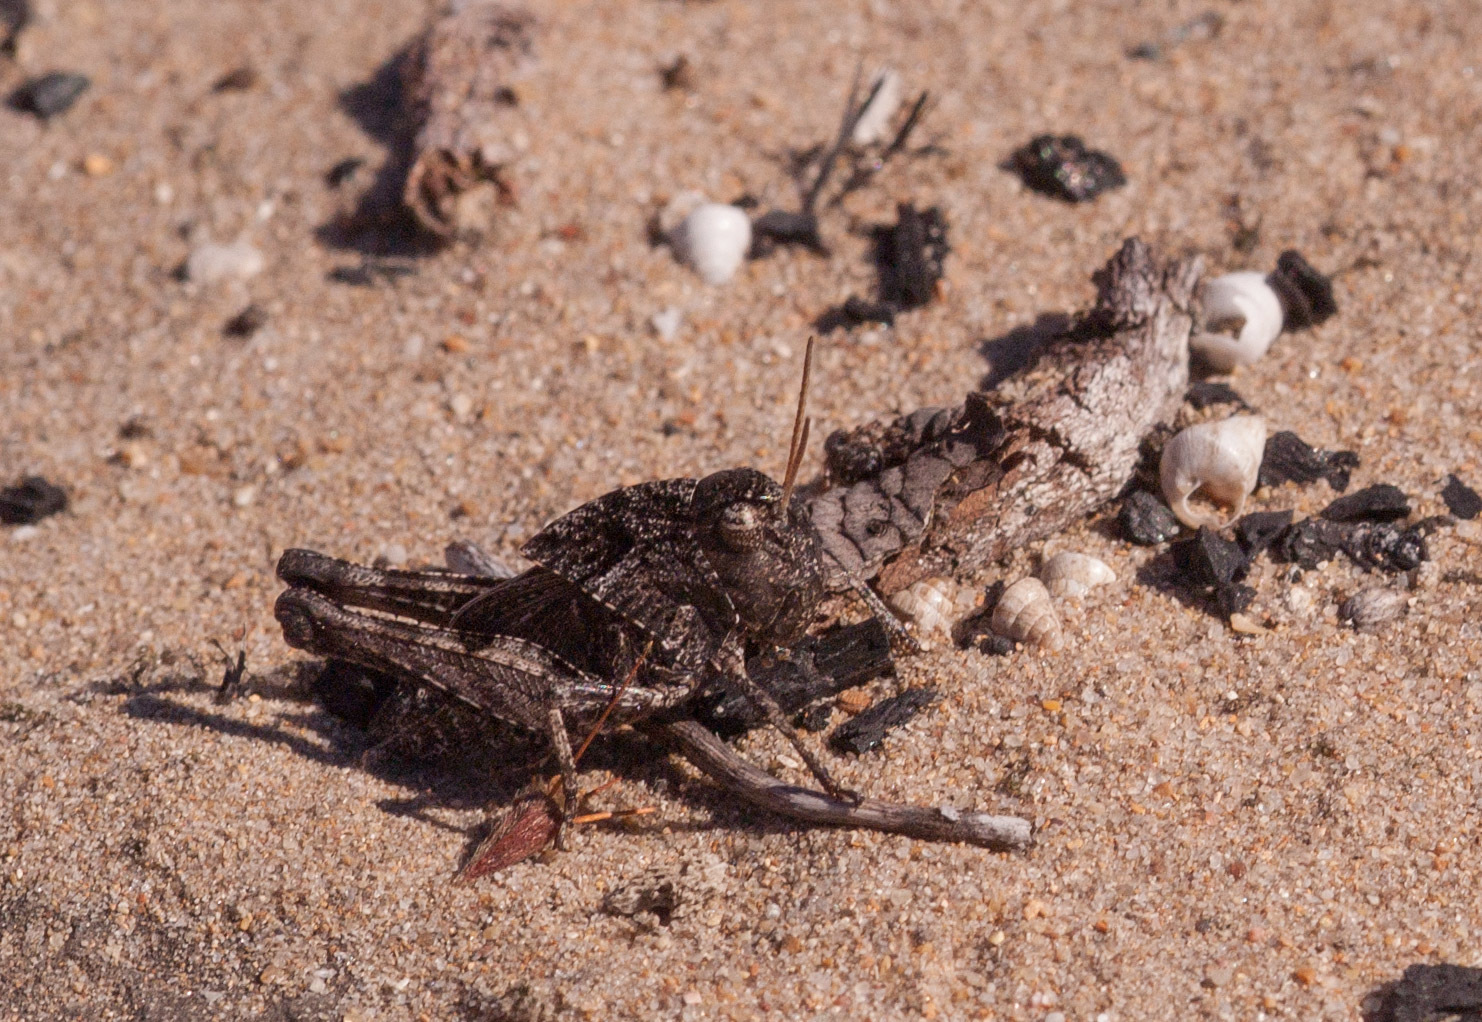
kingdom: Animalia
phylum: Arthropoda
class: Insecta
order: Orthoptera
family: Acrididae
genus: Gastrimargus
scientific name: Gastrimargus musicus
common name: Yellow-winged locust
